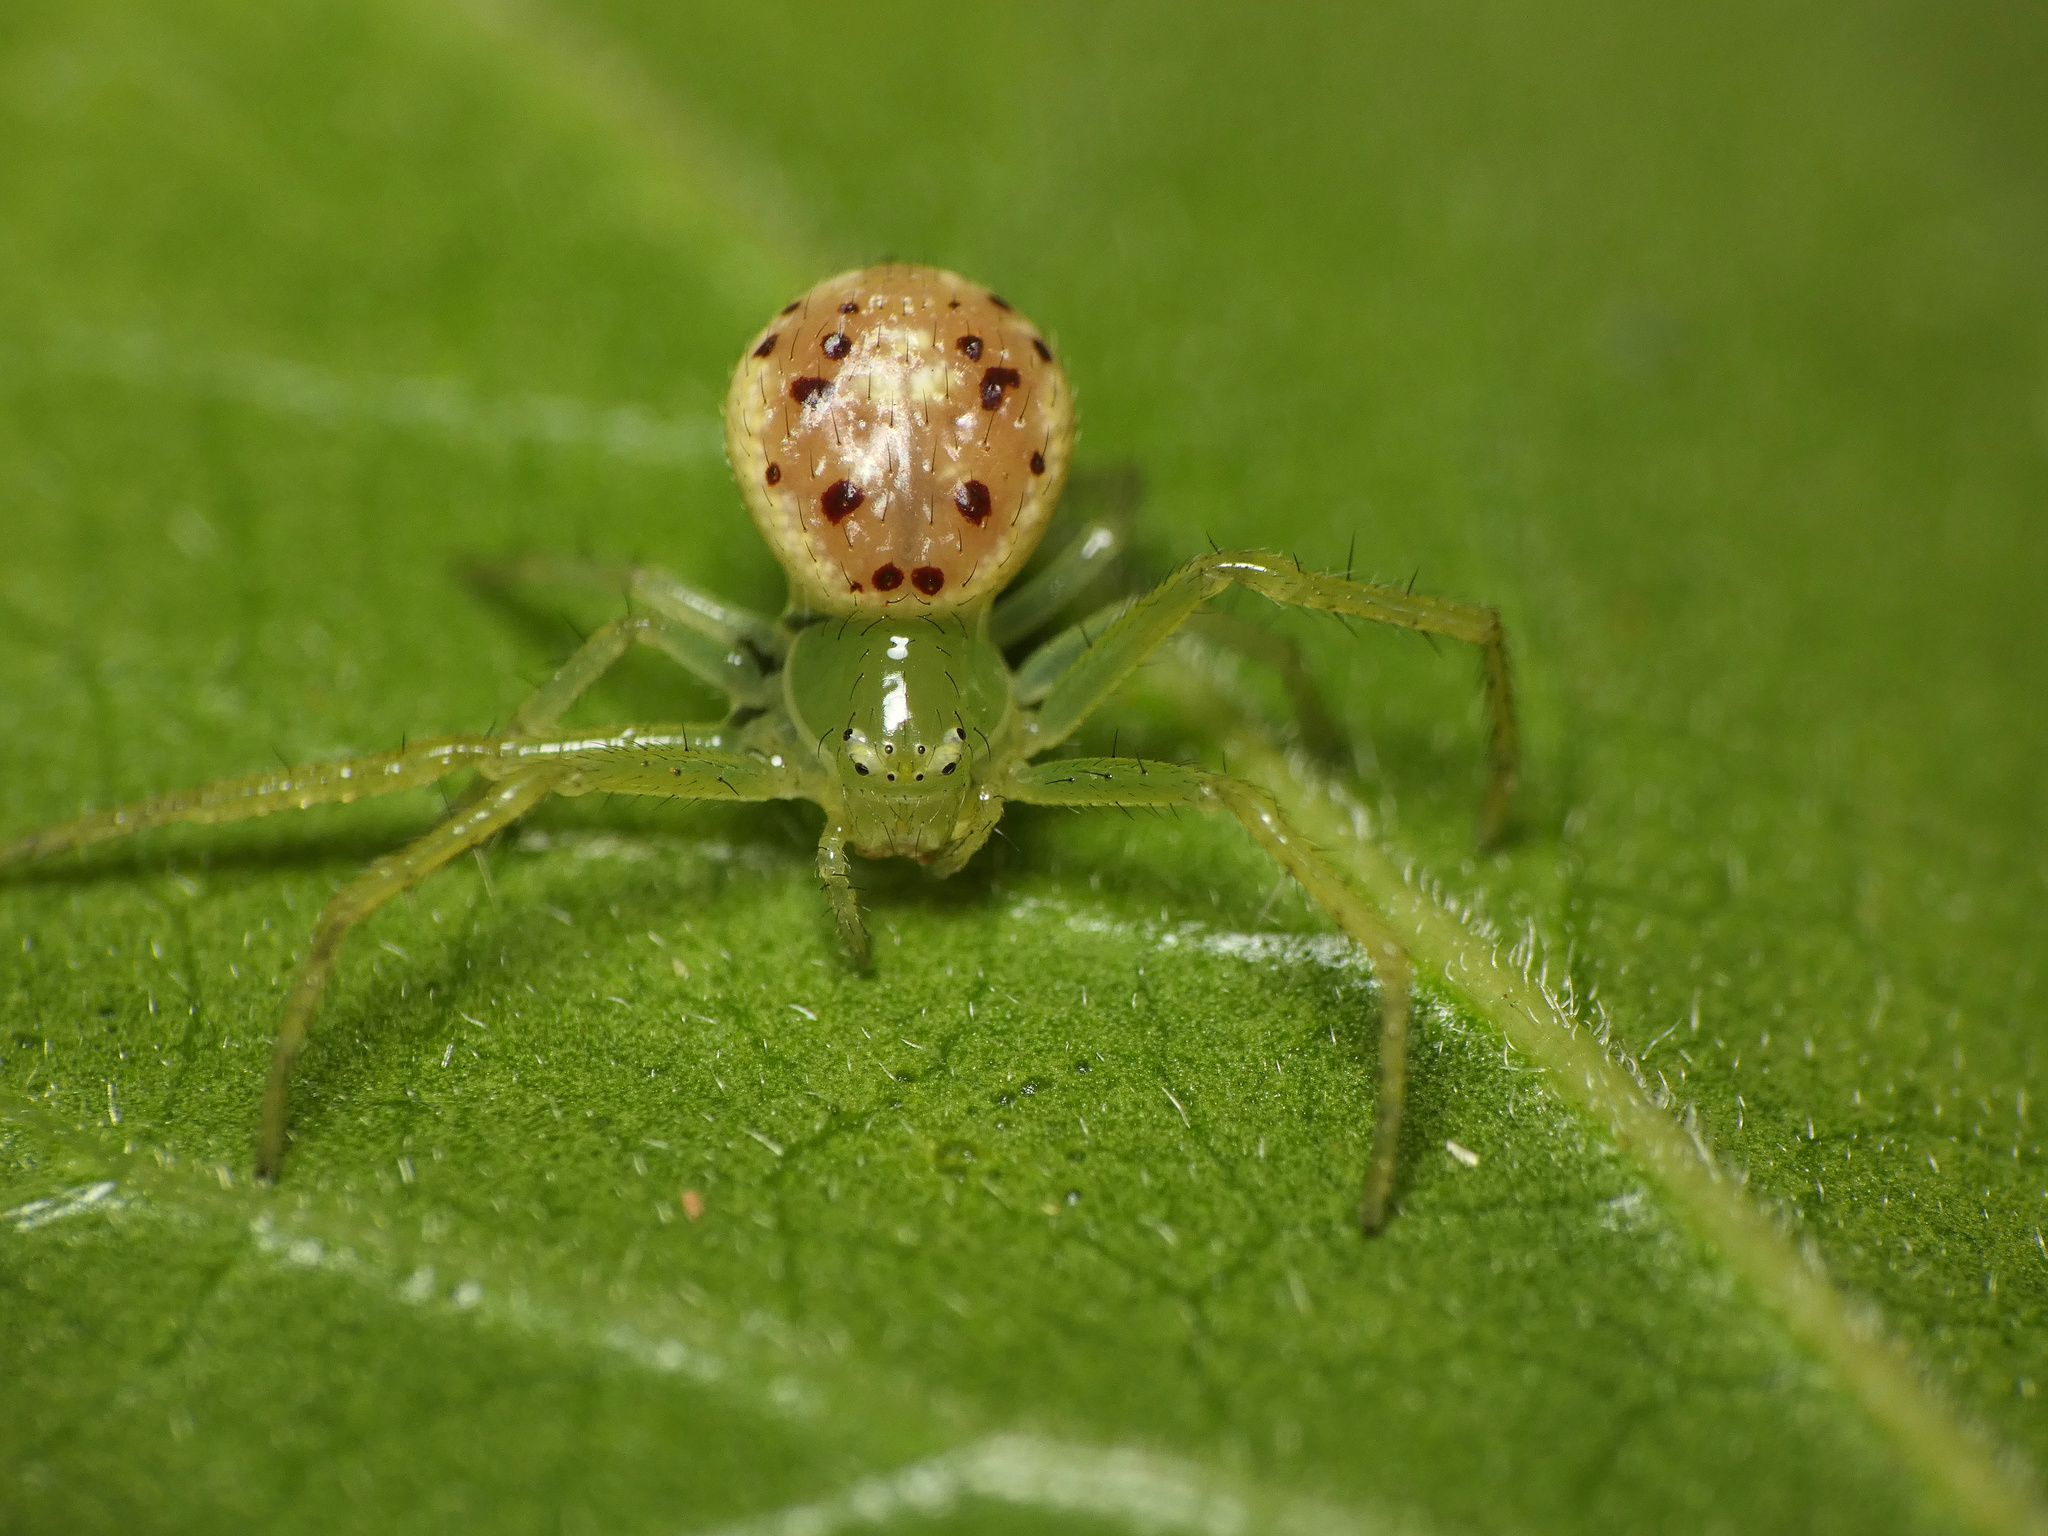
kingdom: Animalia
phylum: Arthropoda
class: Arachnida
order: Araneae
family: Thomisidae
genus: Diaea
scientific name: Diaea puncta
